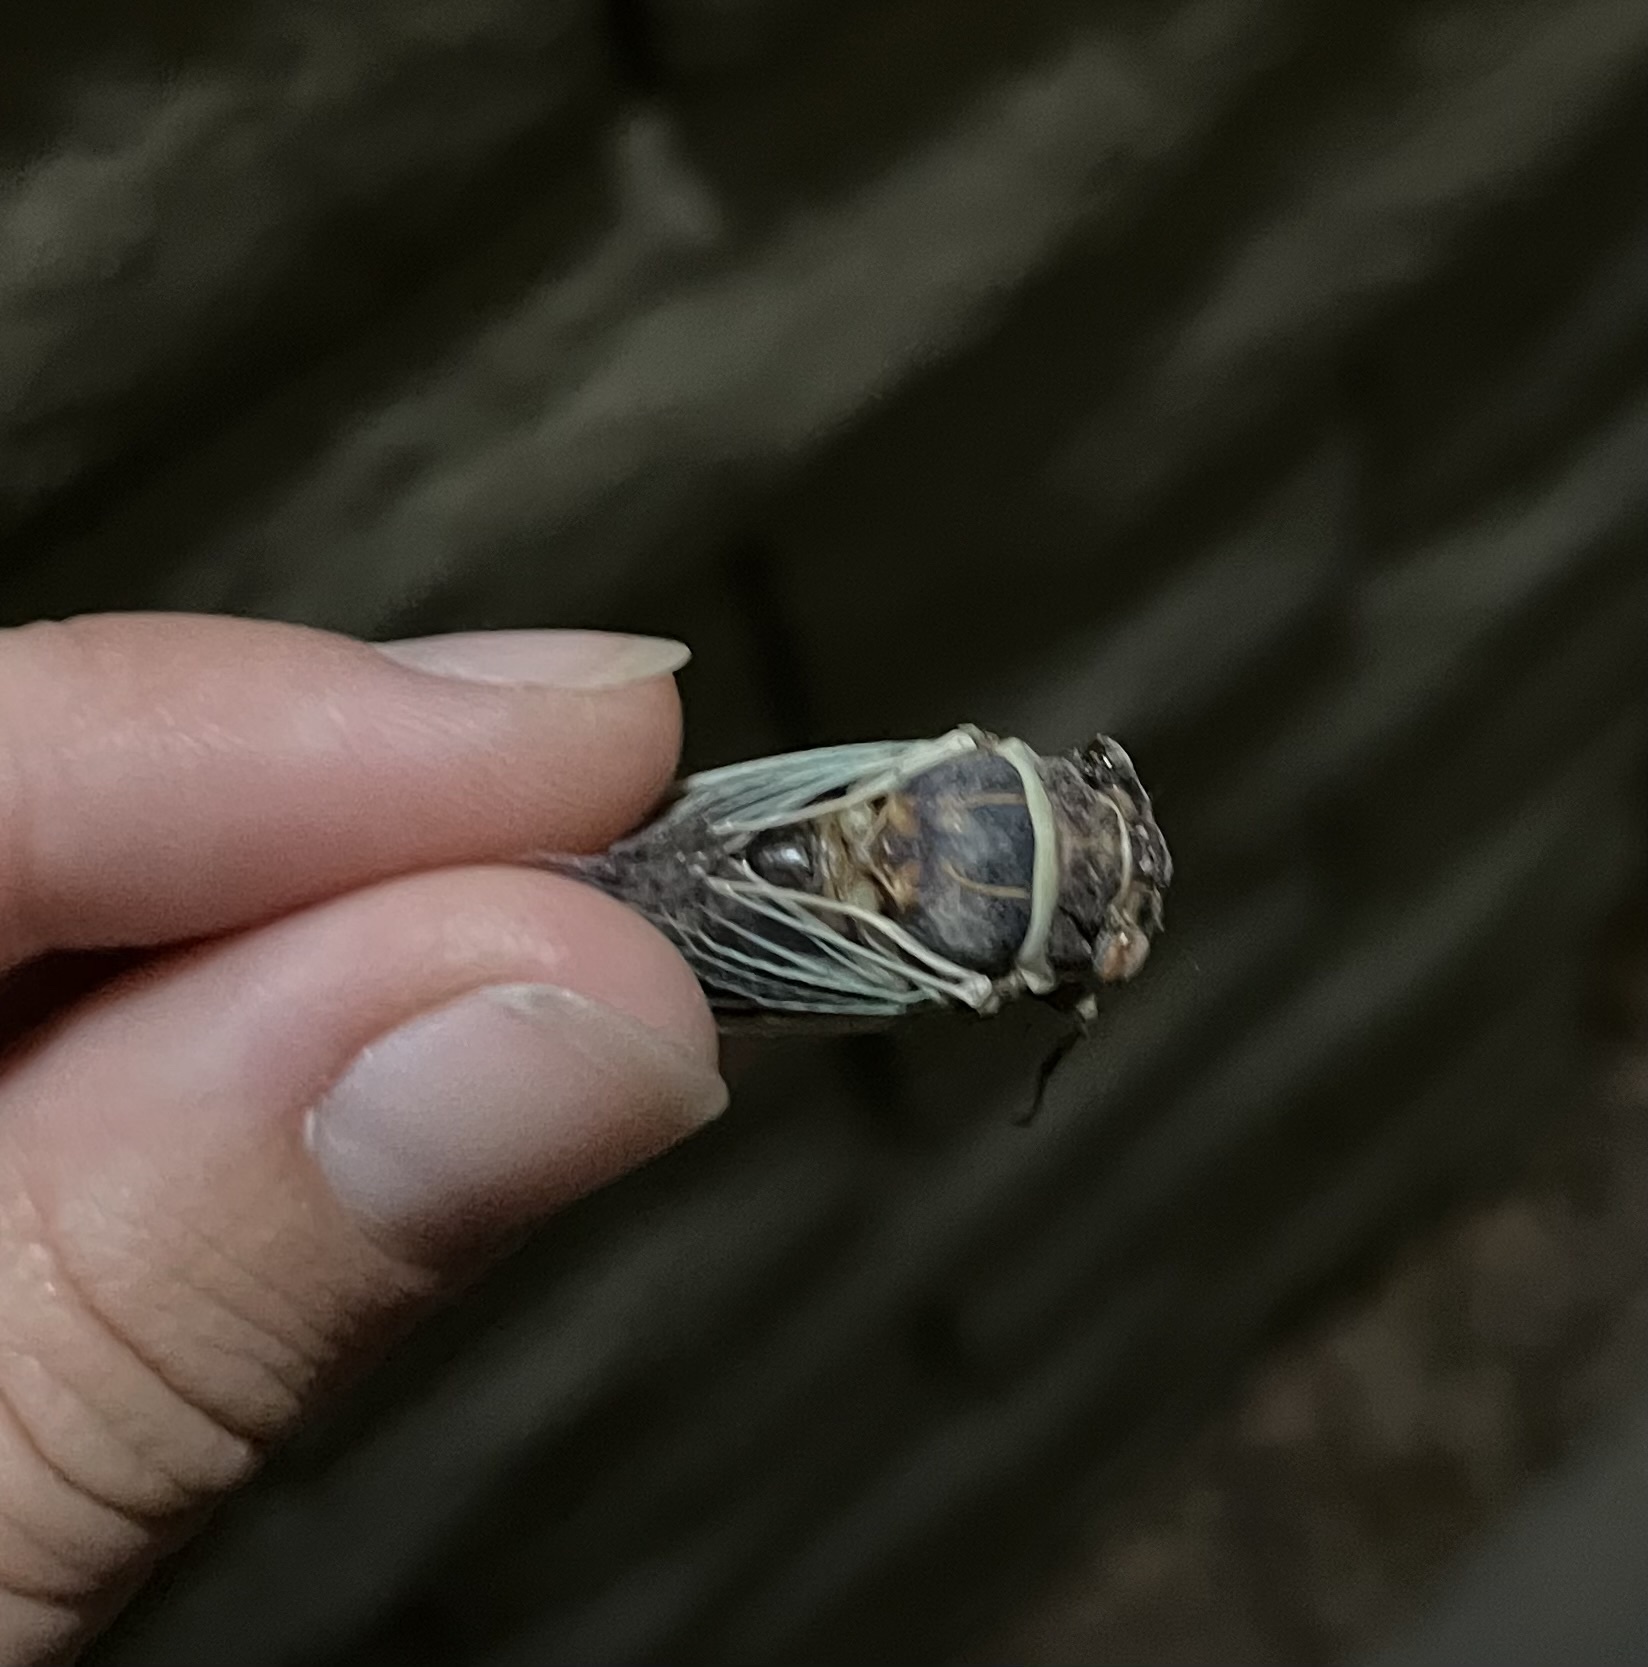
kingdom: Animalia
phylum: Arthropoda
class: Insecta
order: Hemiptera
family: Cicadidae
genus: Diceroprocta
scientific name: Diceroprocta apache
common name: Desert cicada
